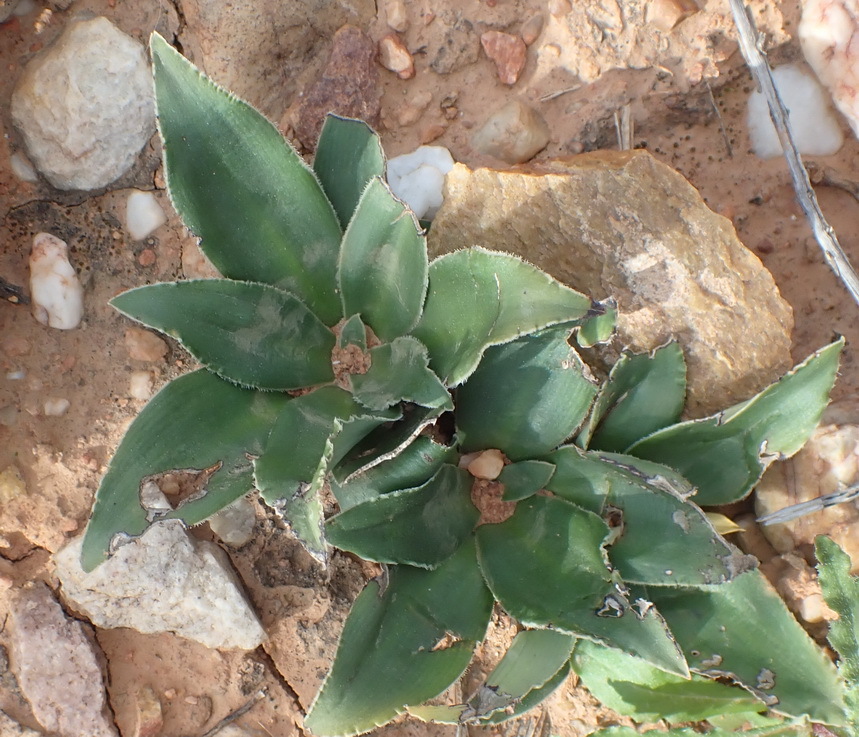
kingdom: Plantae
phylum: Tracheophyta
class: Liliopsida
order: Asparagales
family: Asparagaceae
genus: Chlorophytum
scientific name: Chlorophytum crispum
